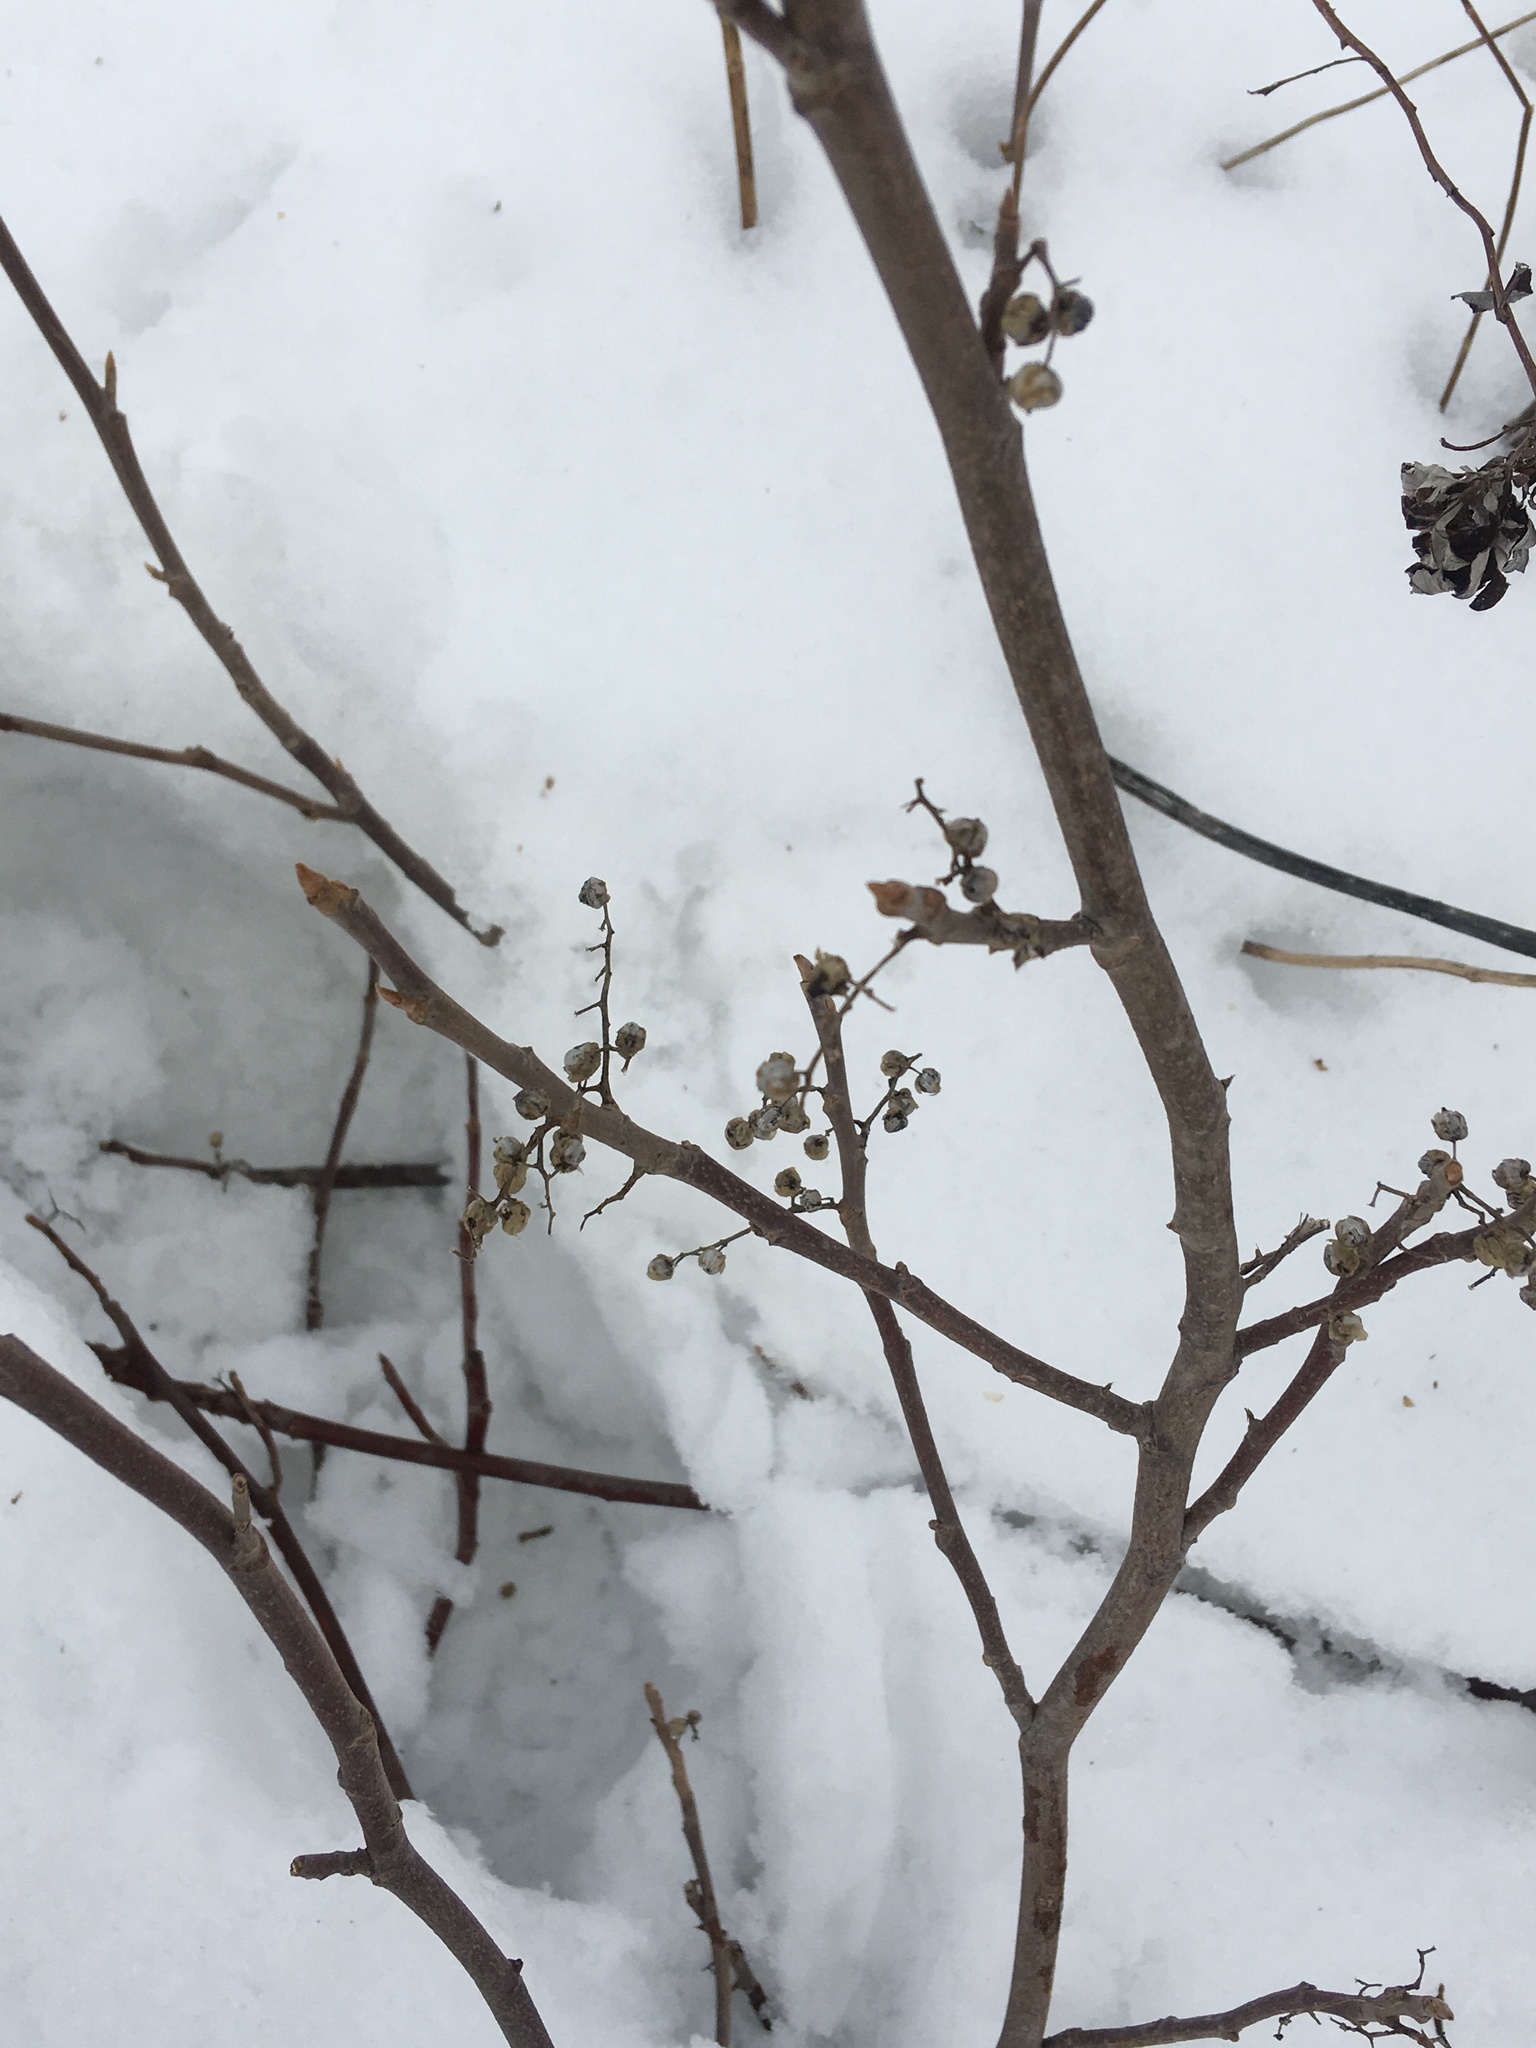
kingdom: Plantae
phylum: Tracheophyta
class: Magnoliopsida
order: Sapindales
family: Anacardiaceae
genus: Toxicodendron
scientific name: Toxicodendron radicans
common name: Poison ivy
